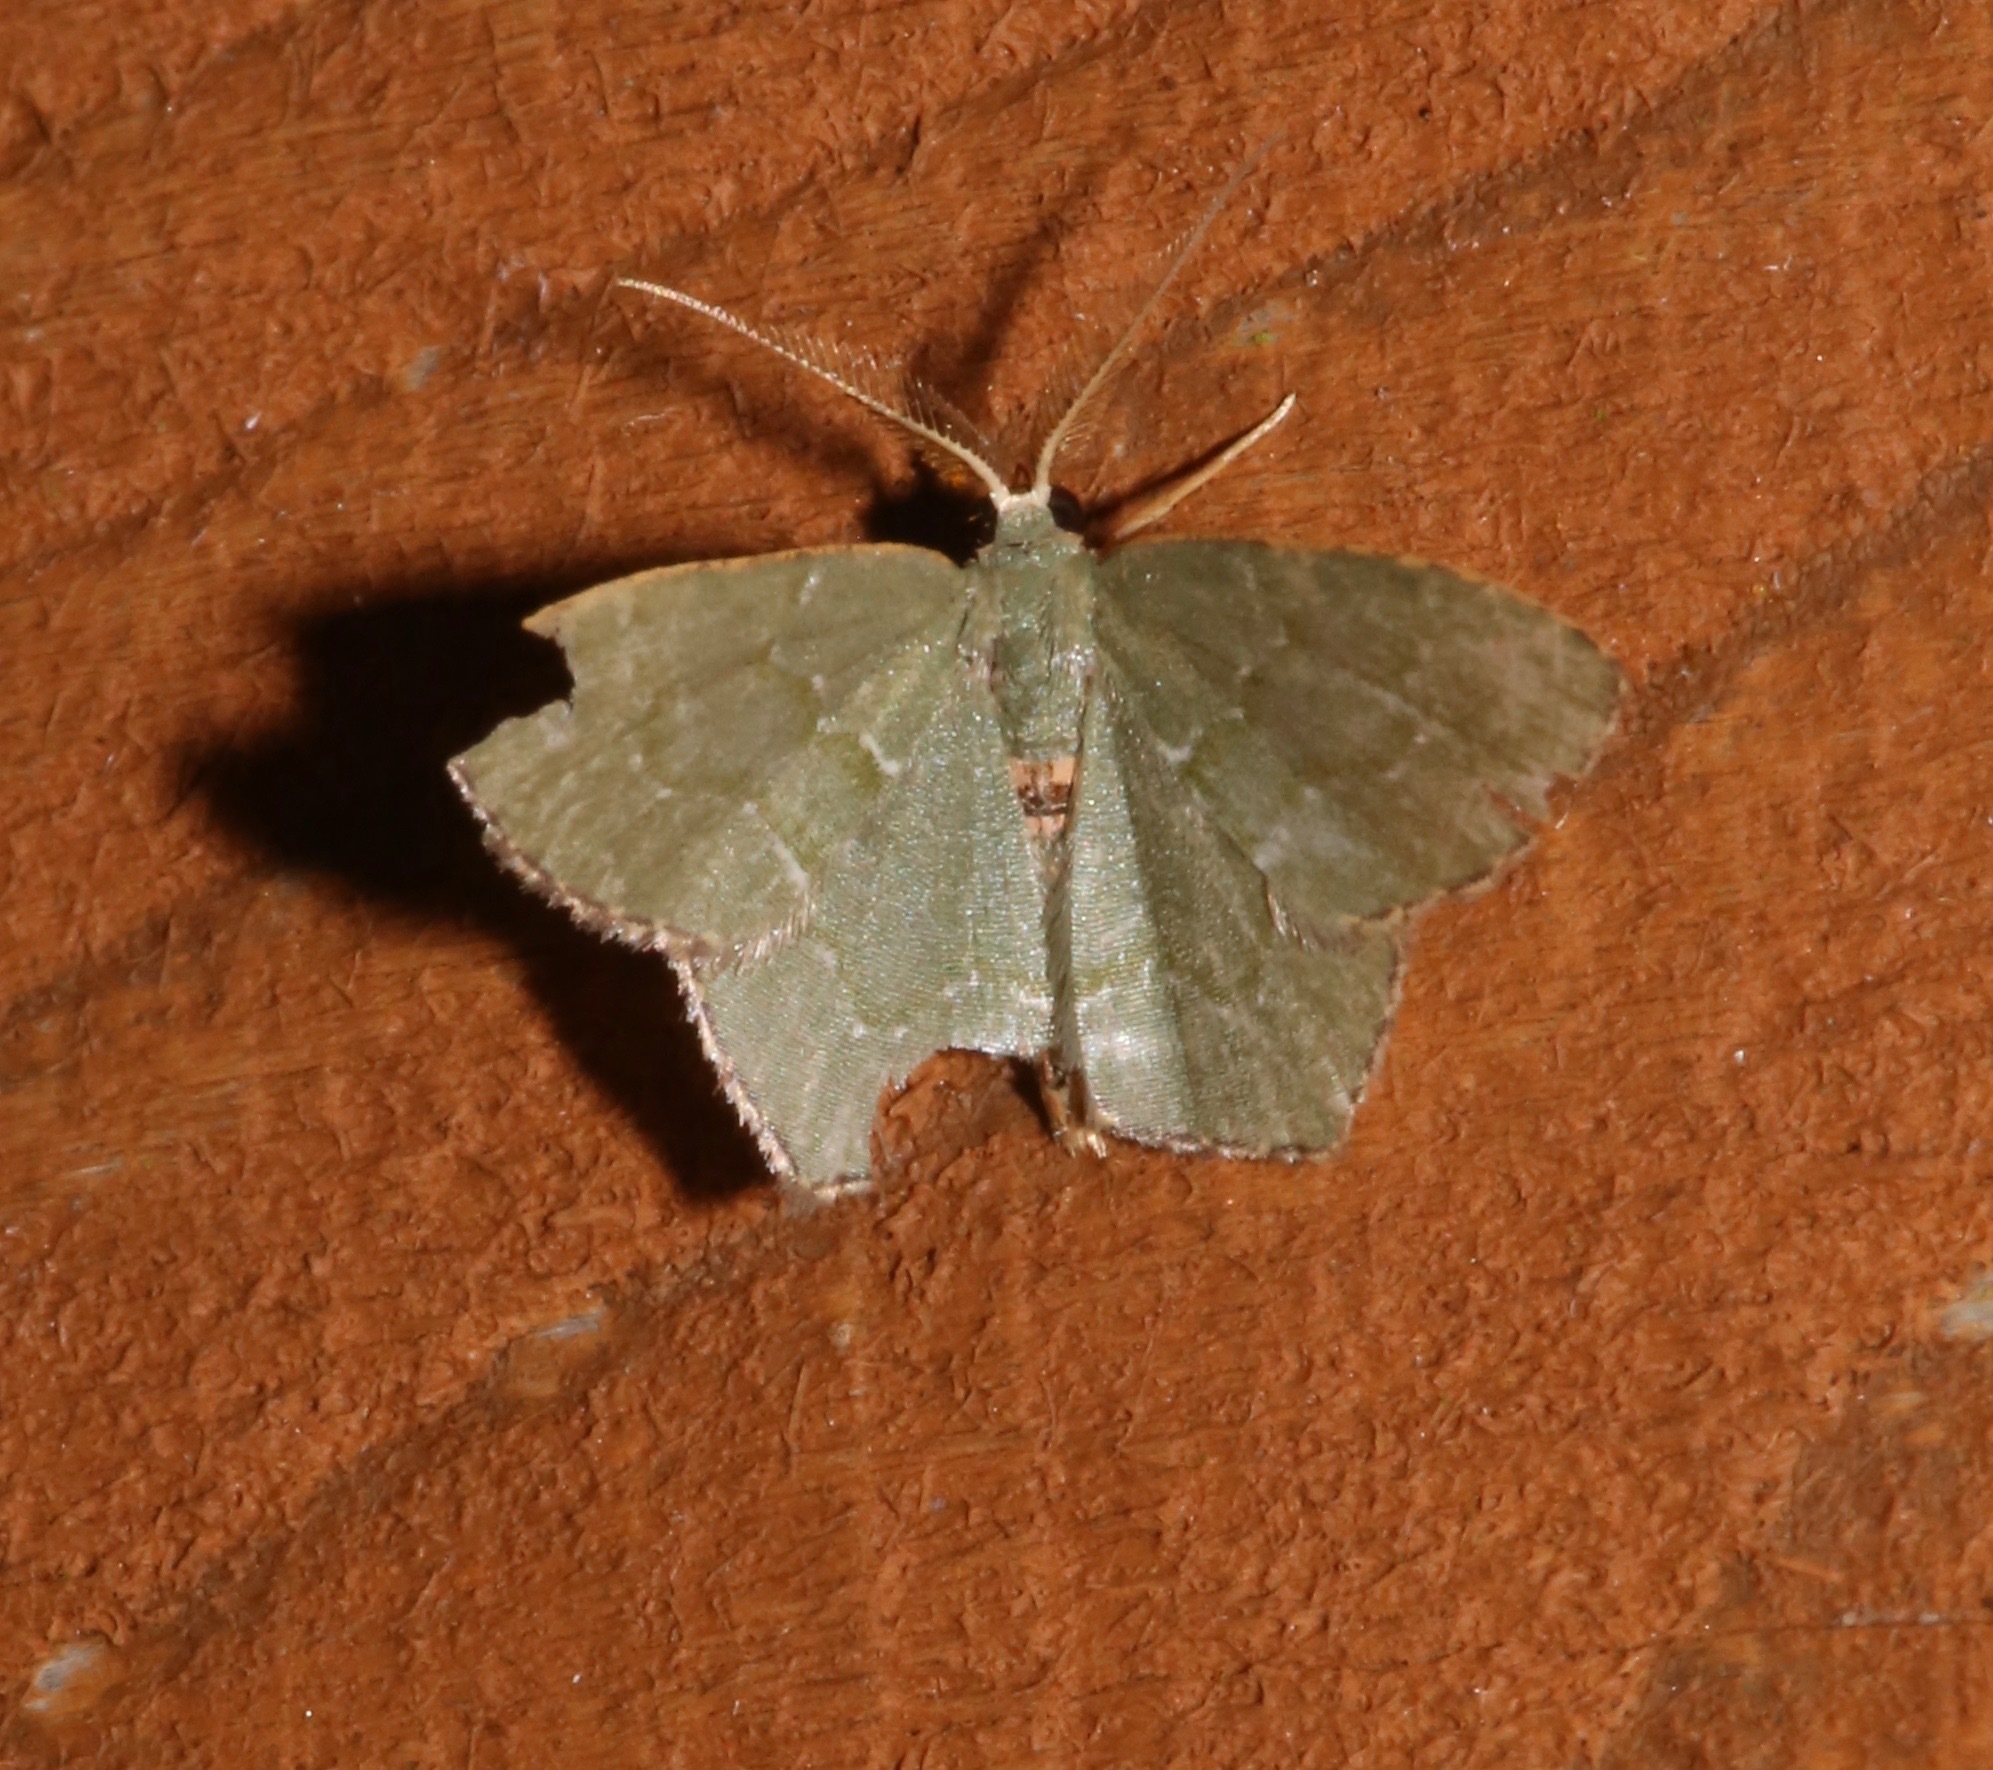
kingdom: Animalia
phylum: Arthropoda
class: Insecta
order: Lepidoptera
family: Geometridae
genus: Chloropteryx
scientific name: Chloropteryx tepperaria
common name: Angle winged emerald moth
